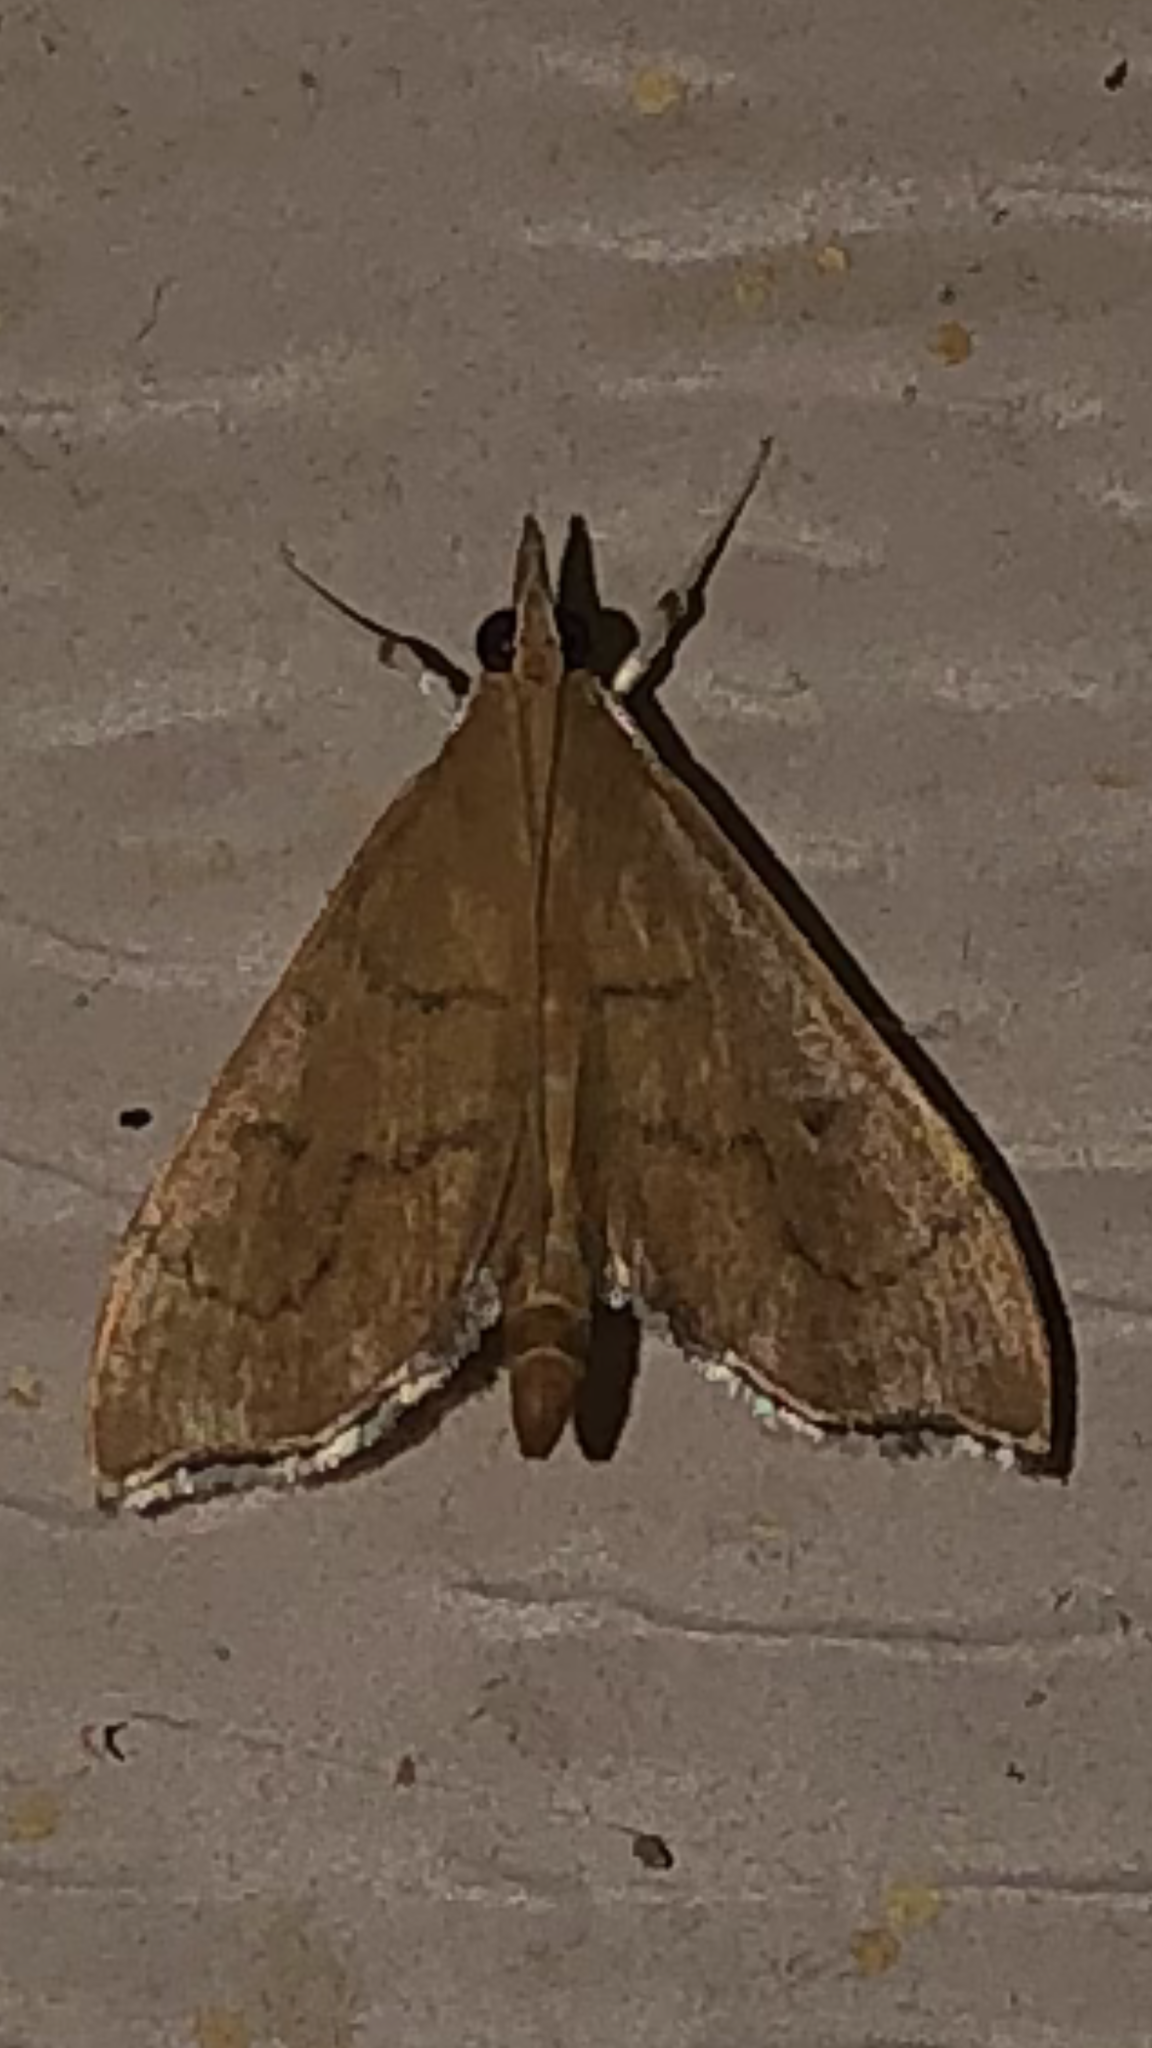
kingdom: Animalia
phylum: Arthropoda
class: Insecta
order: Lepidoptera
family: Crambidae
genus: Sericoplaga
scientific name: Sericoplaga externalis
